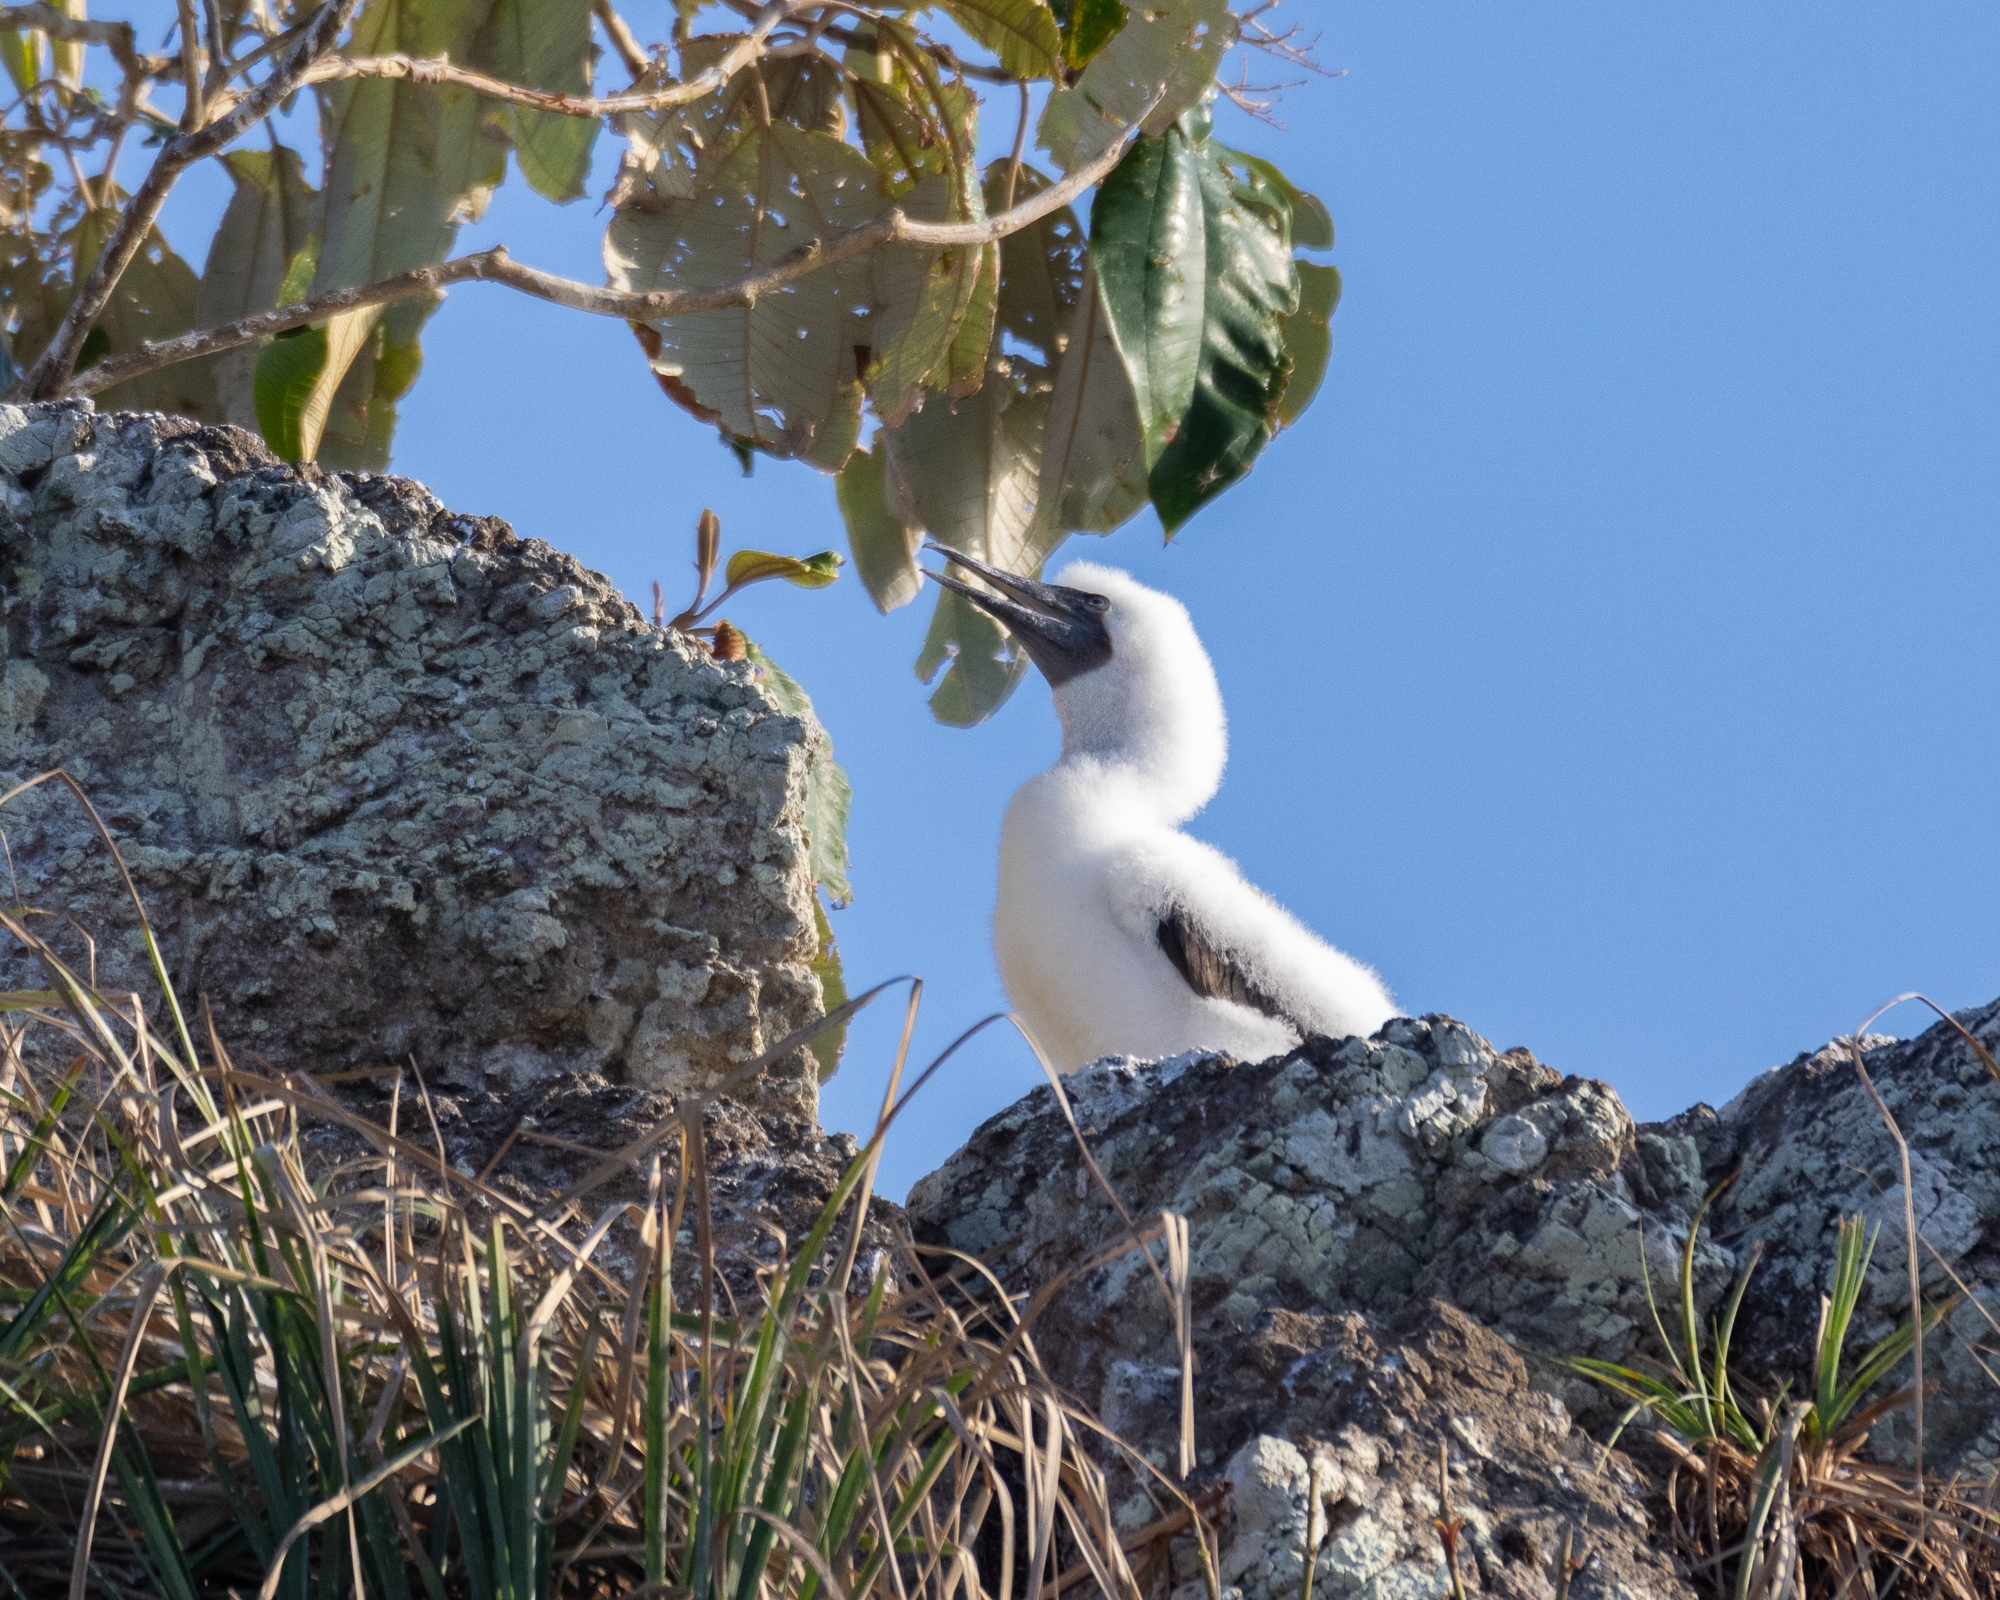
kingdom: Animalia
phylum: Chordata
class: Aves
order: Suliformes
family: Sulidae
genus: Sula
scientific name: Sula leucogaster
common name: Brown booby
